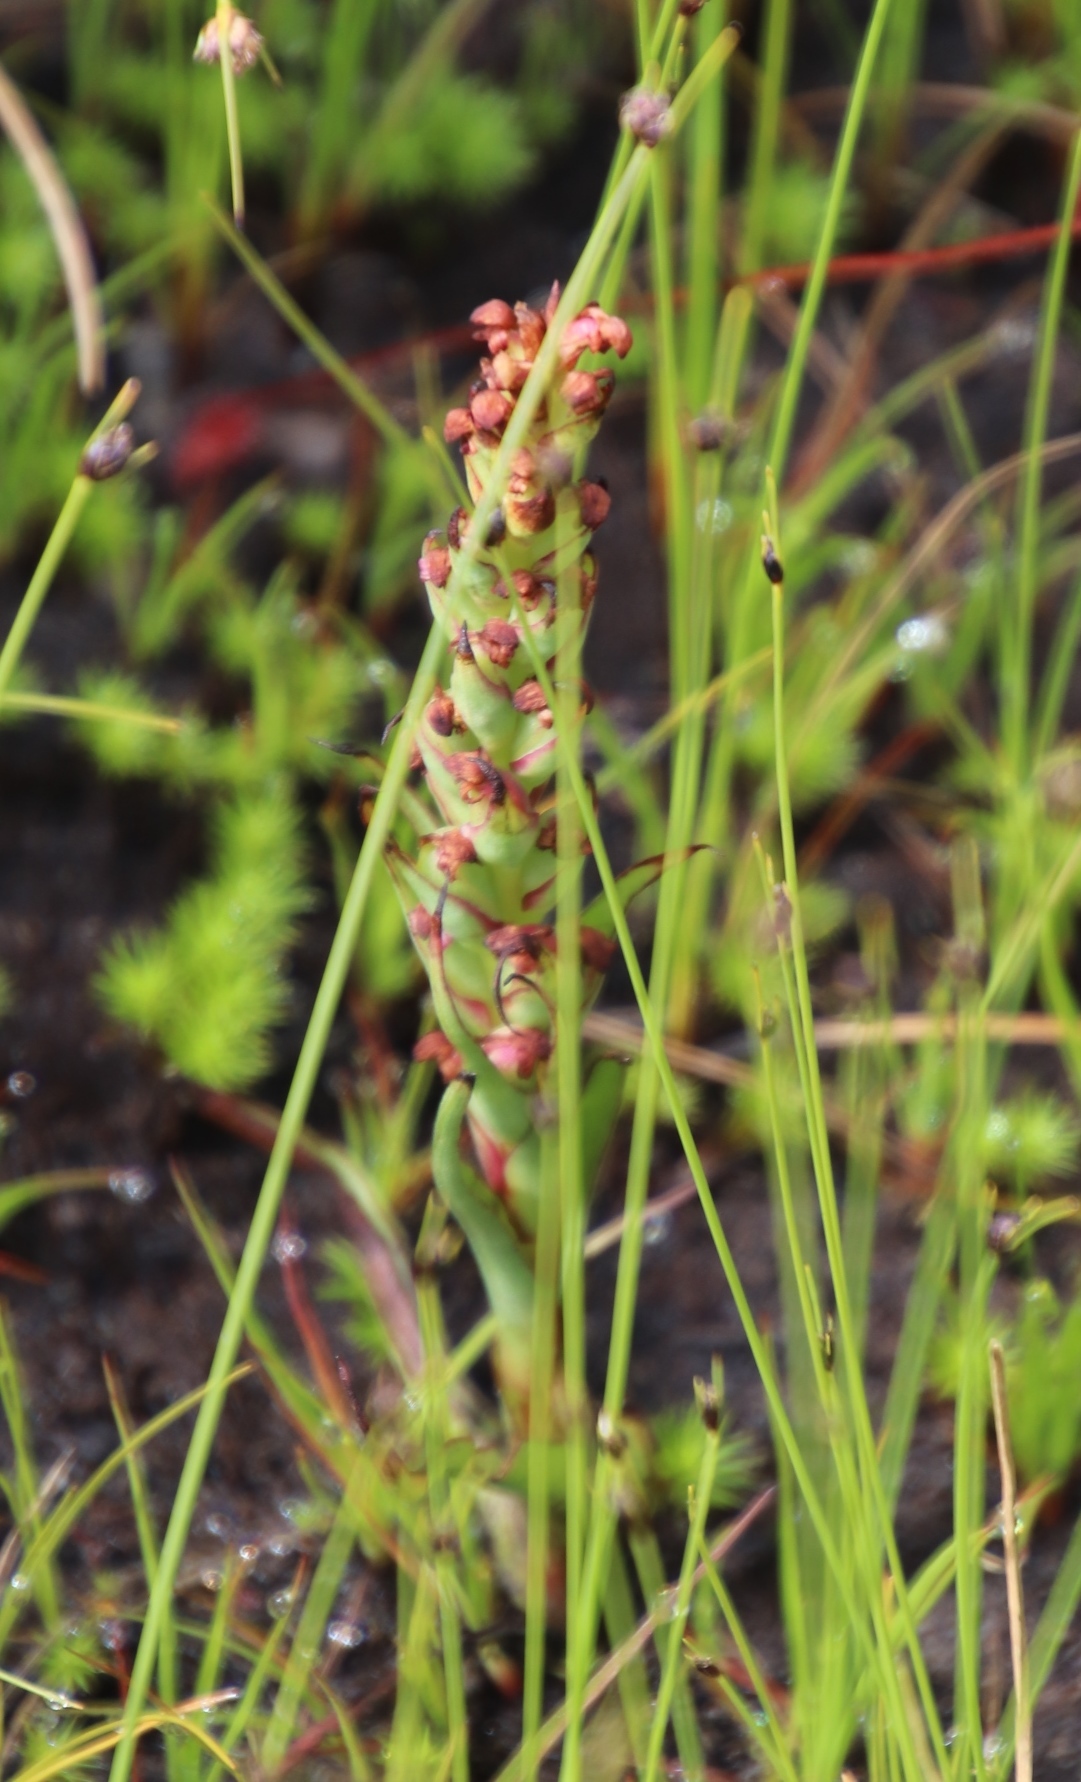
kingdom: Plantae
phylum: Tracheophyta
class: Liliopsida
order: Asparagales
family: Orchidaceae
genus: Disa
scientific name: Disa bracteata
